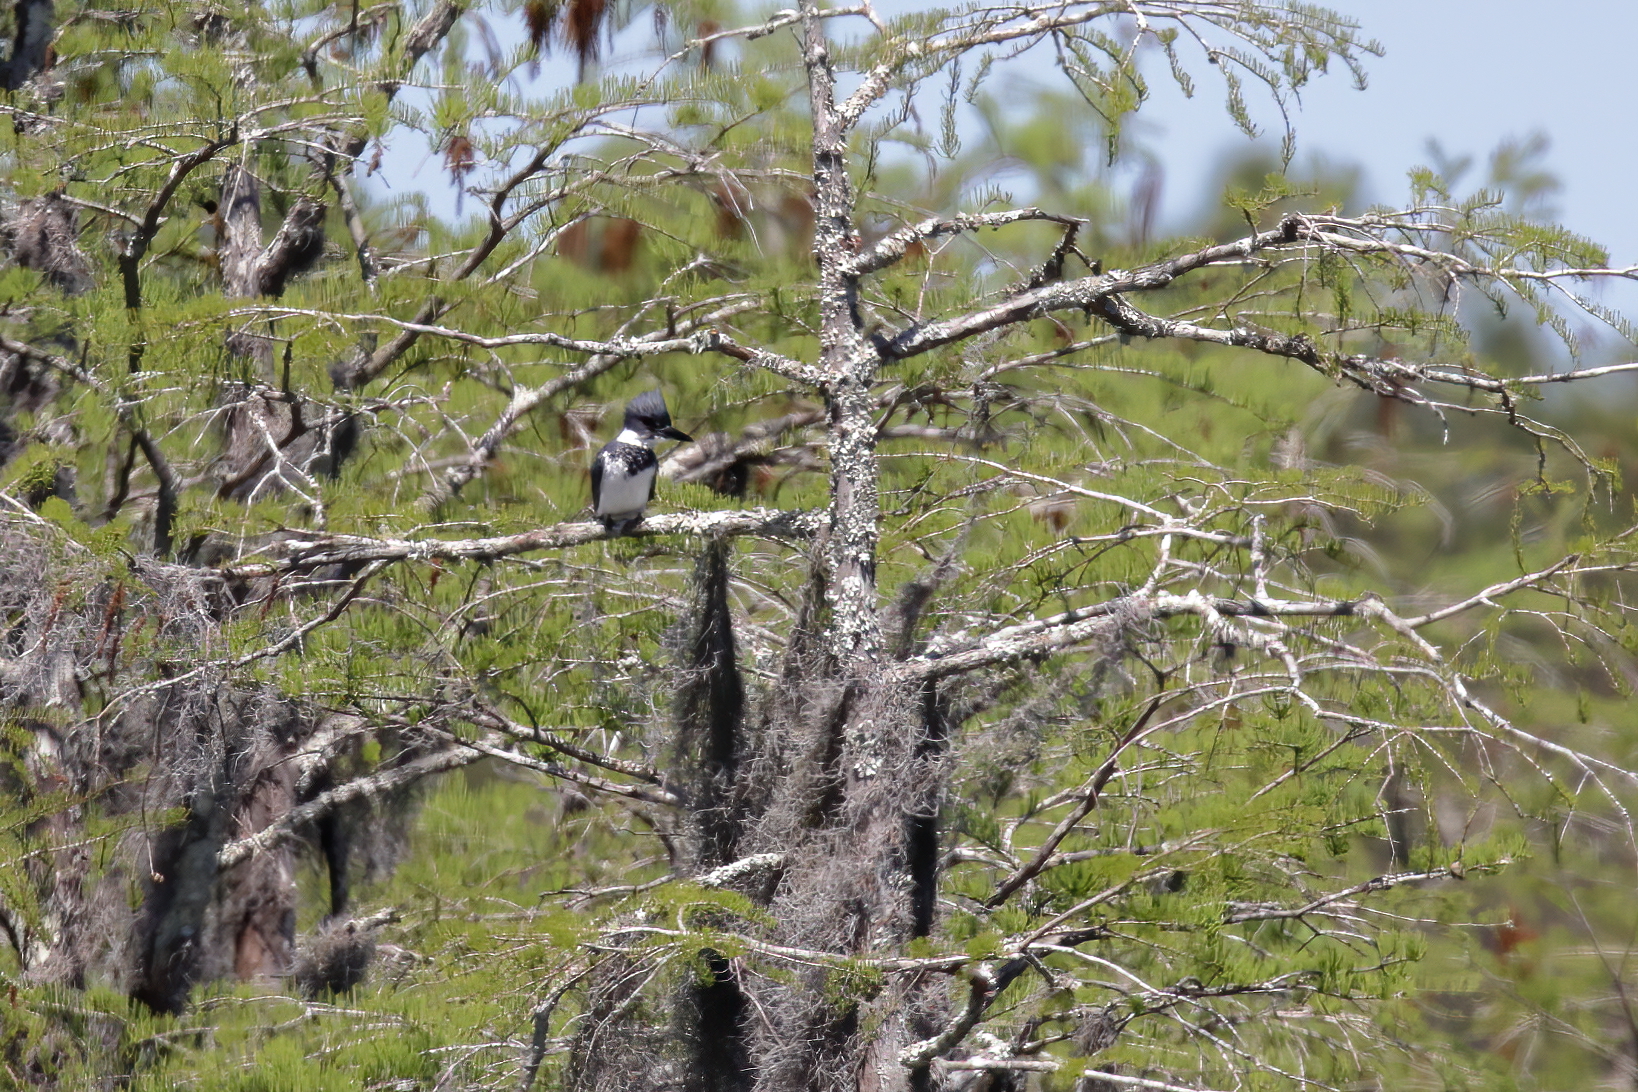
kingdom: Animalia
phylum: Chordata
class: Aves
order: Coraciiformes
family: Alcedinidae
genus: Megaceryle
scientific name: Megaceryle alcyon
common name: Belted kingfisher
